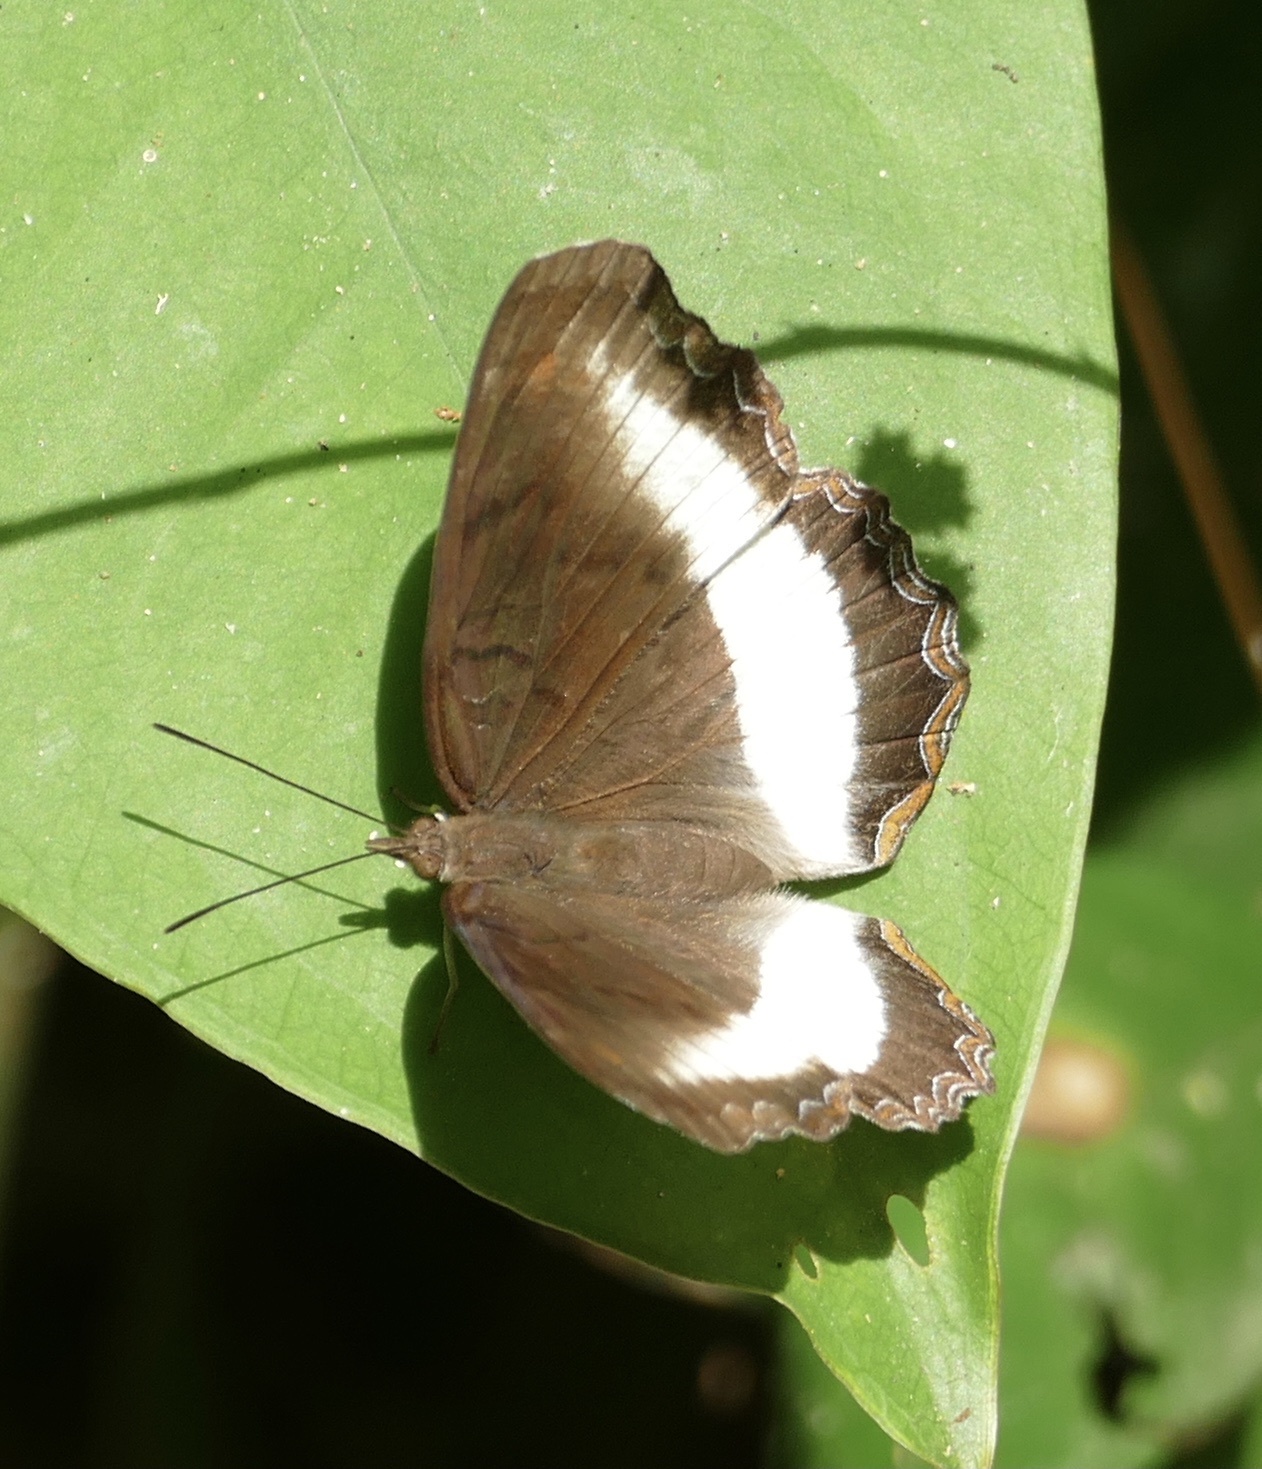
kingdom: Animalia
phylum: Arthropoda
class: Insecta
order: Lepidoptera
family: Nymphalidae
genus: Eurytela
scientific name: Eurytela hiarbas
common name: Pied piper
